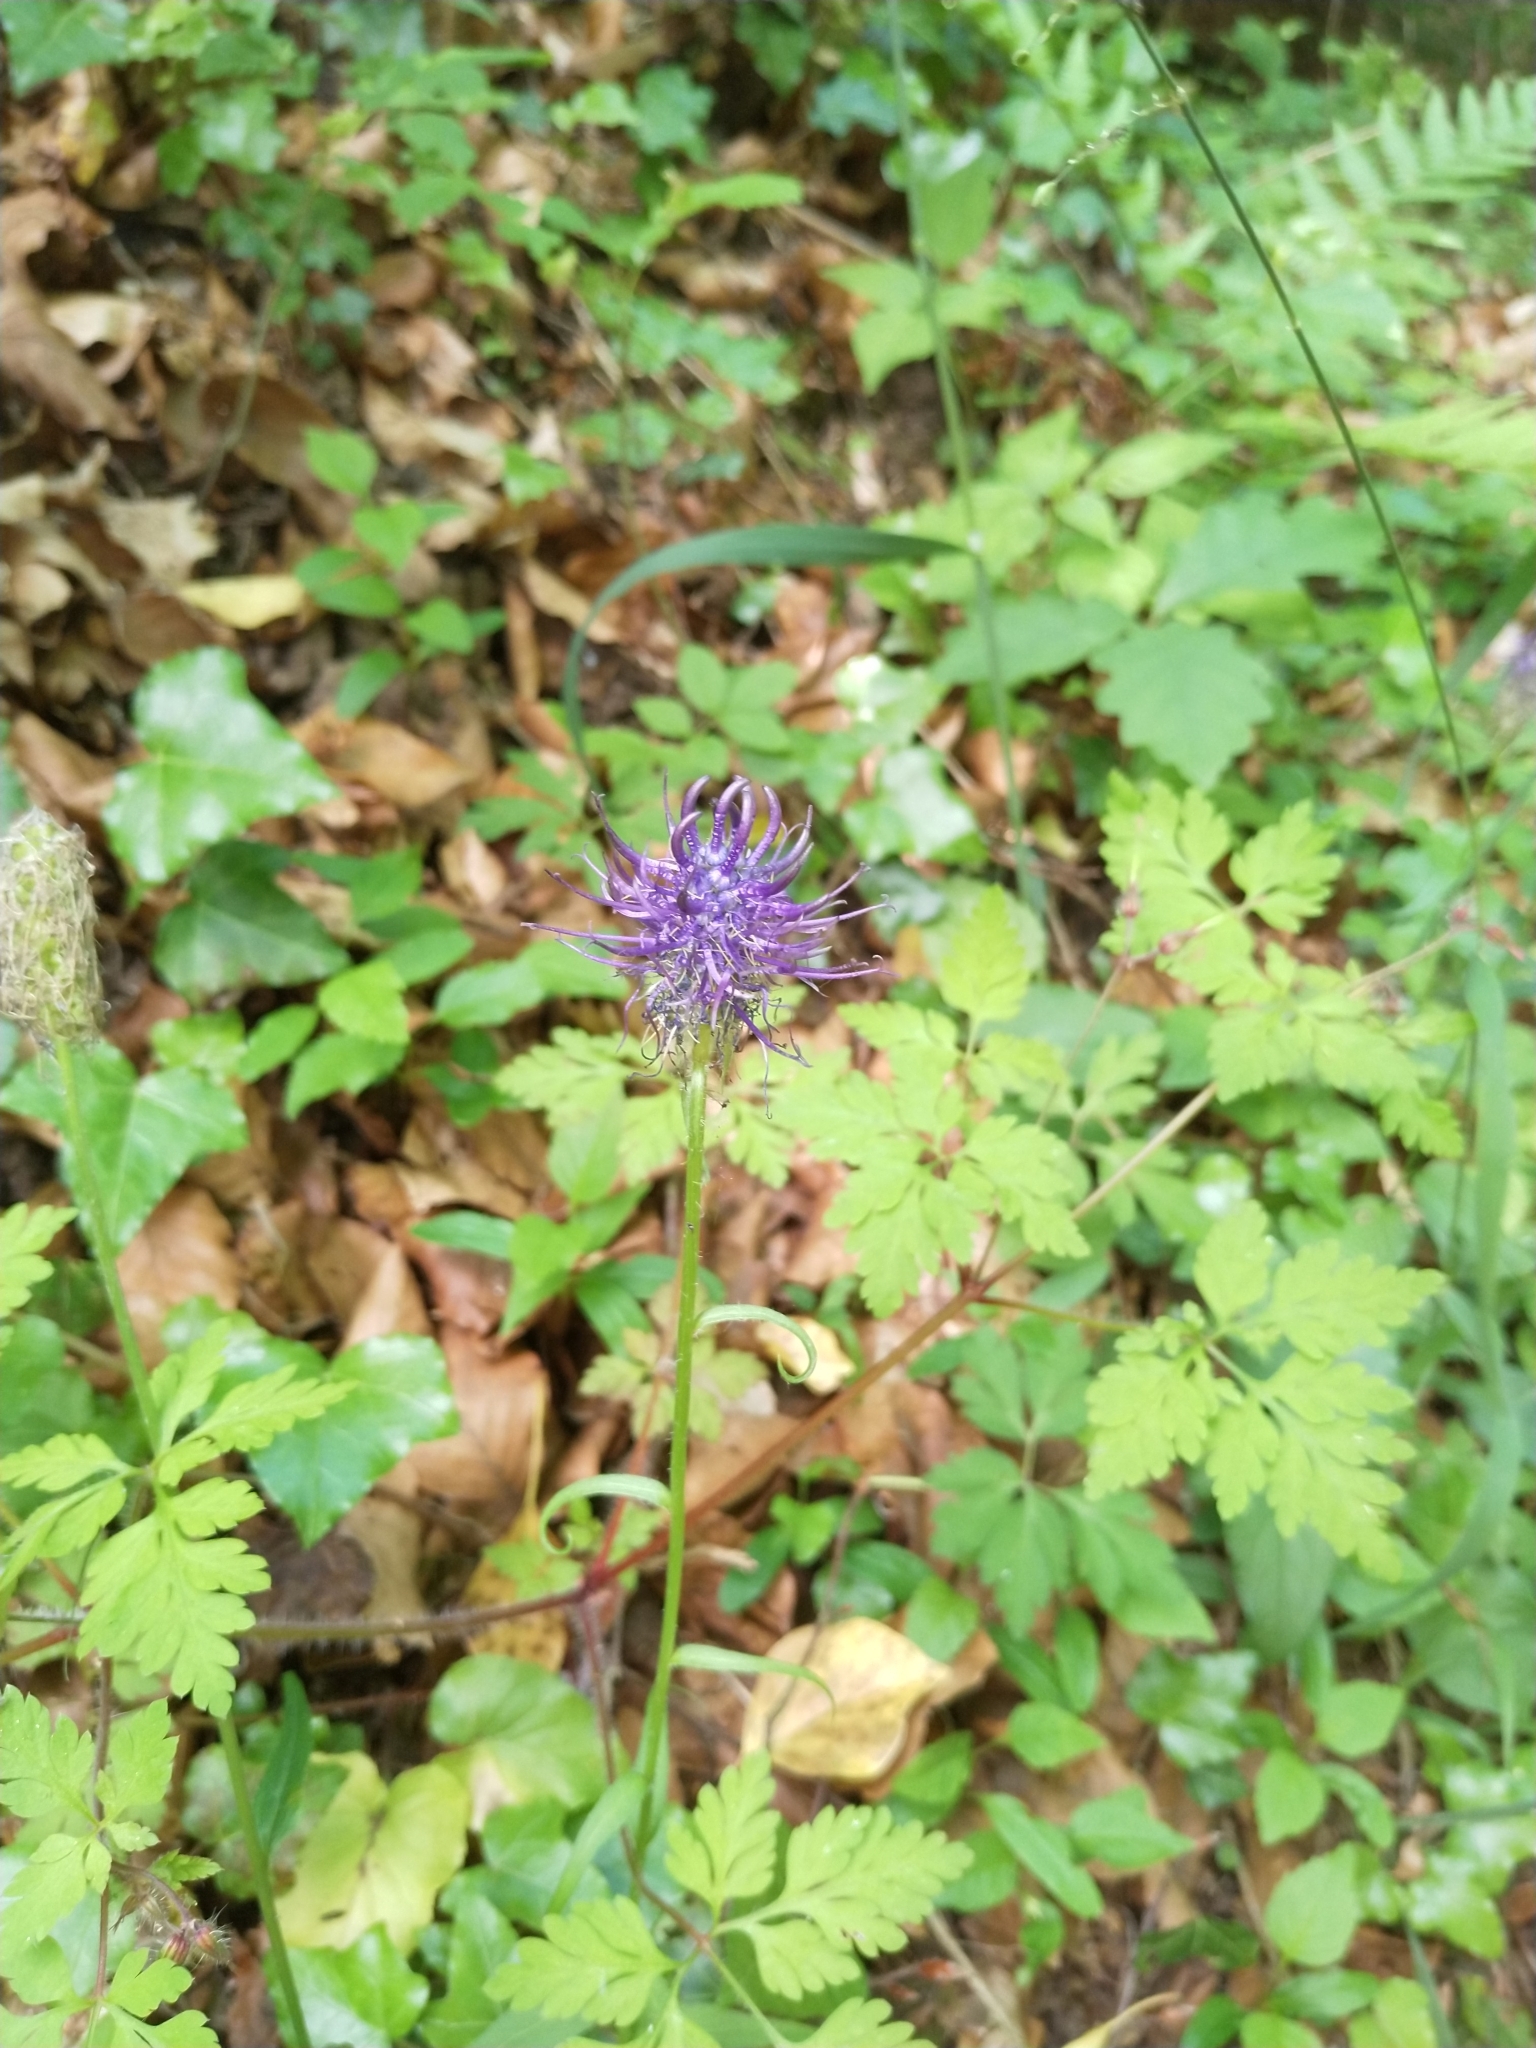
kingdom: Plantae
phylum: Tracheophyta
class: Magnoliopsida
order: Asterales
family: Campanulaceae
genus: Phyteuma
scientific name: Phyteuma nigrum
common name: Black rampion
